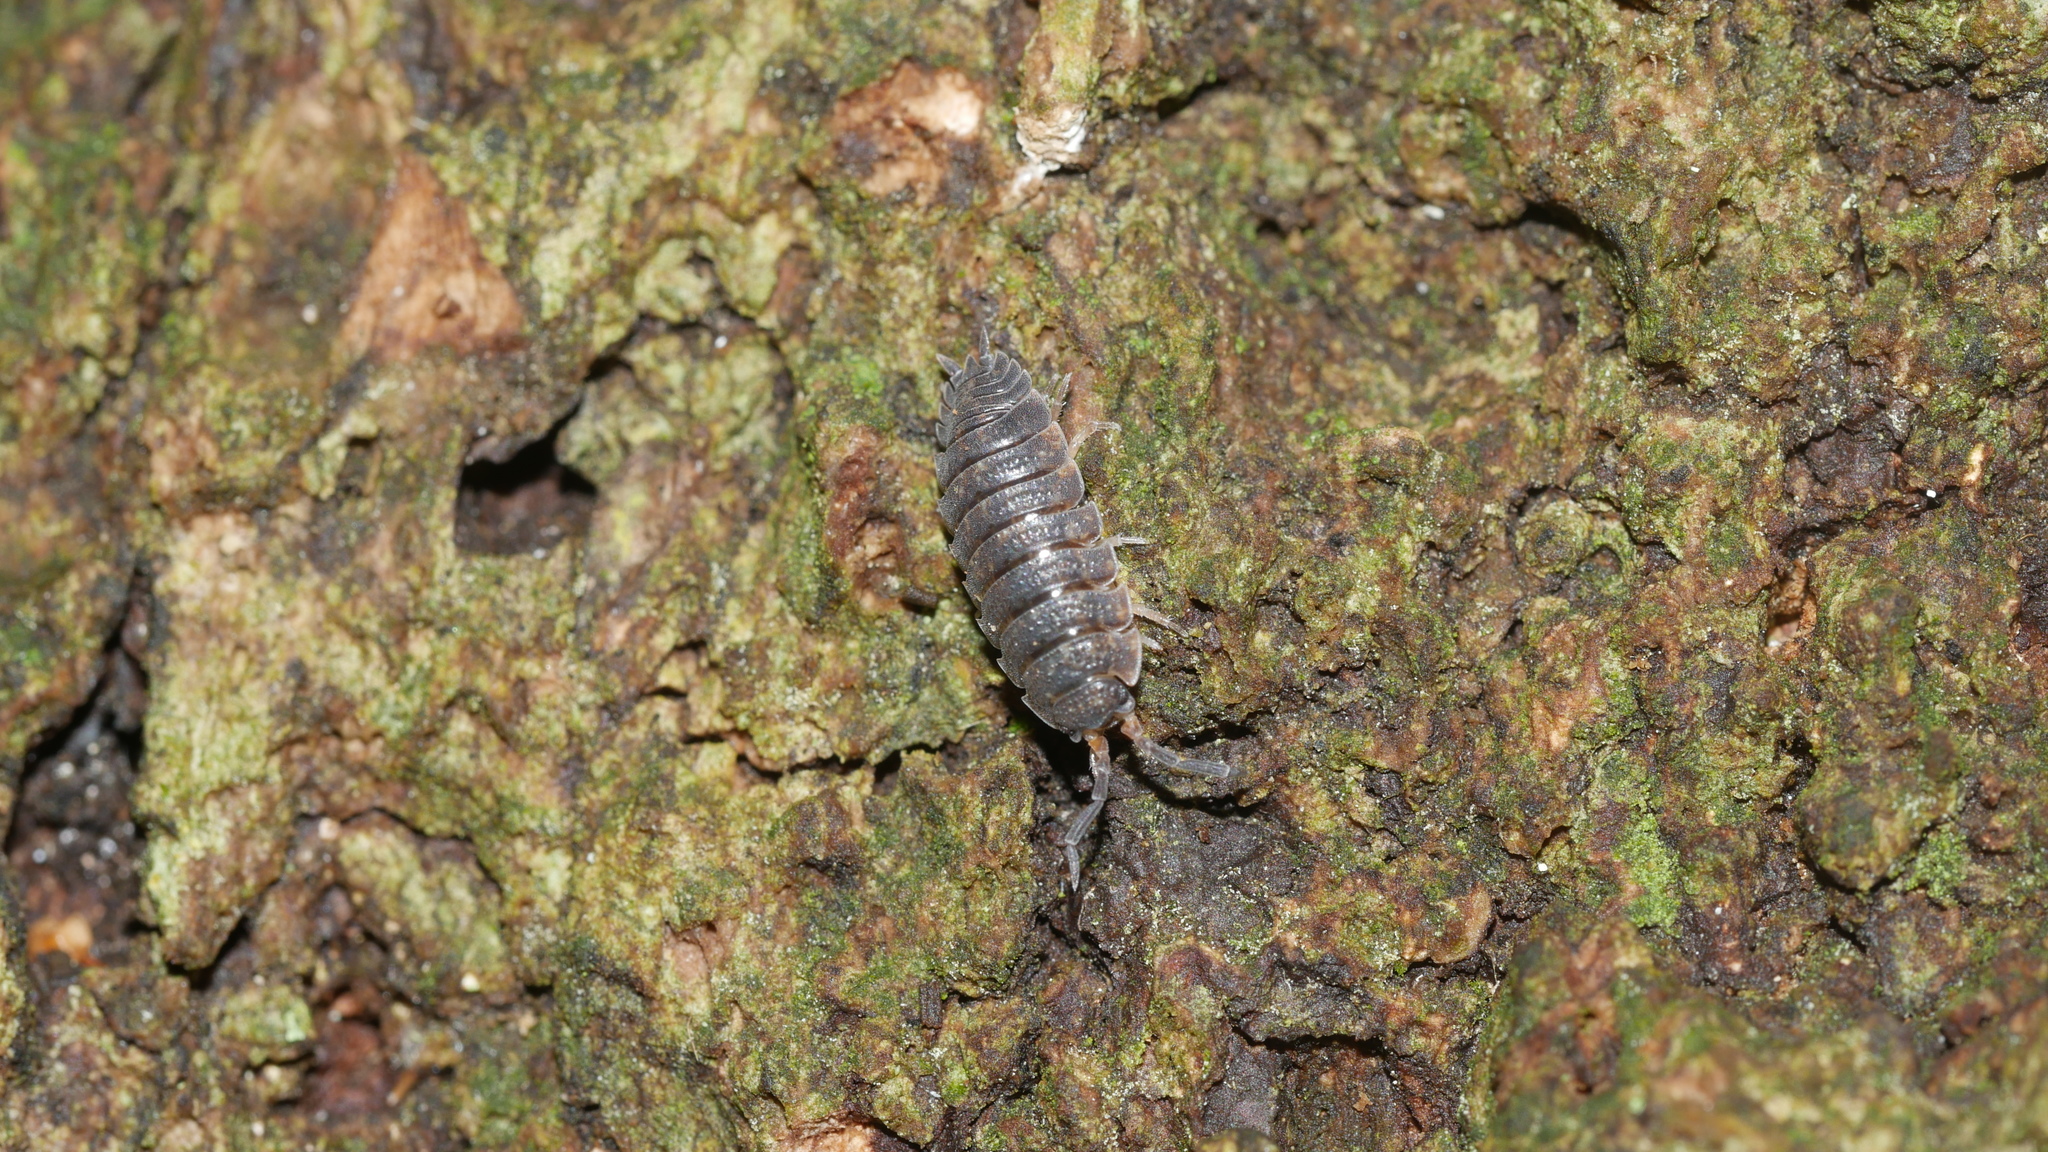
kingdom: Animalia
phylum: Arthropoda
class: Malacostraca
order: Isopoda
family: Porcellionidae
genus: Porcellio
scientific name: Porcellio scaber
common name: Common rough woodlouse
